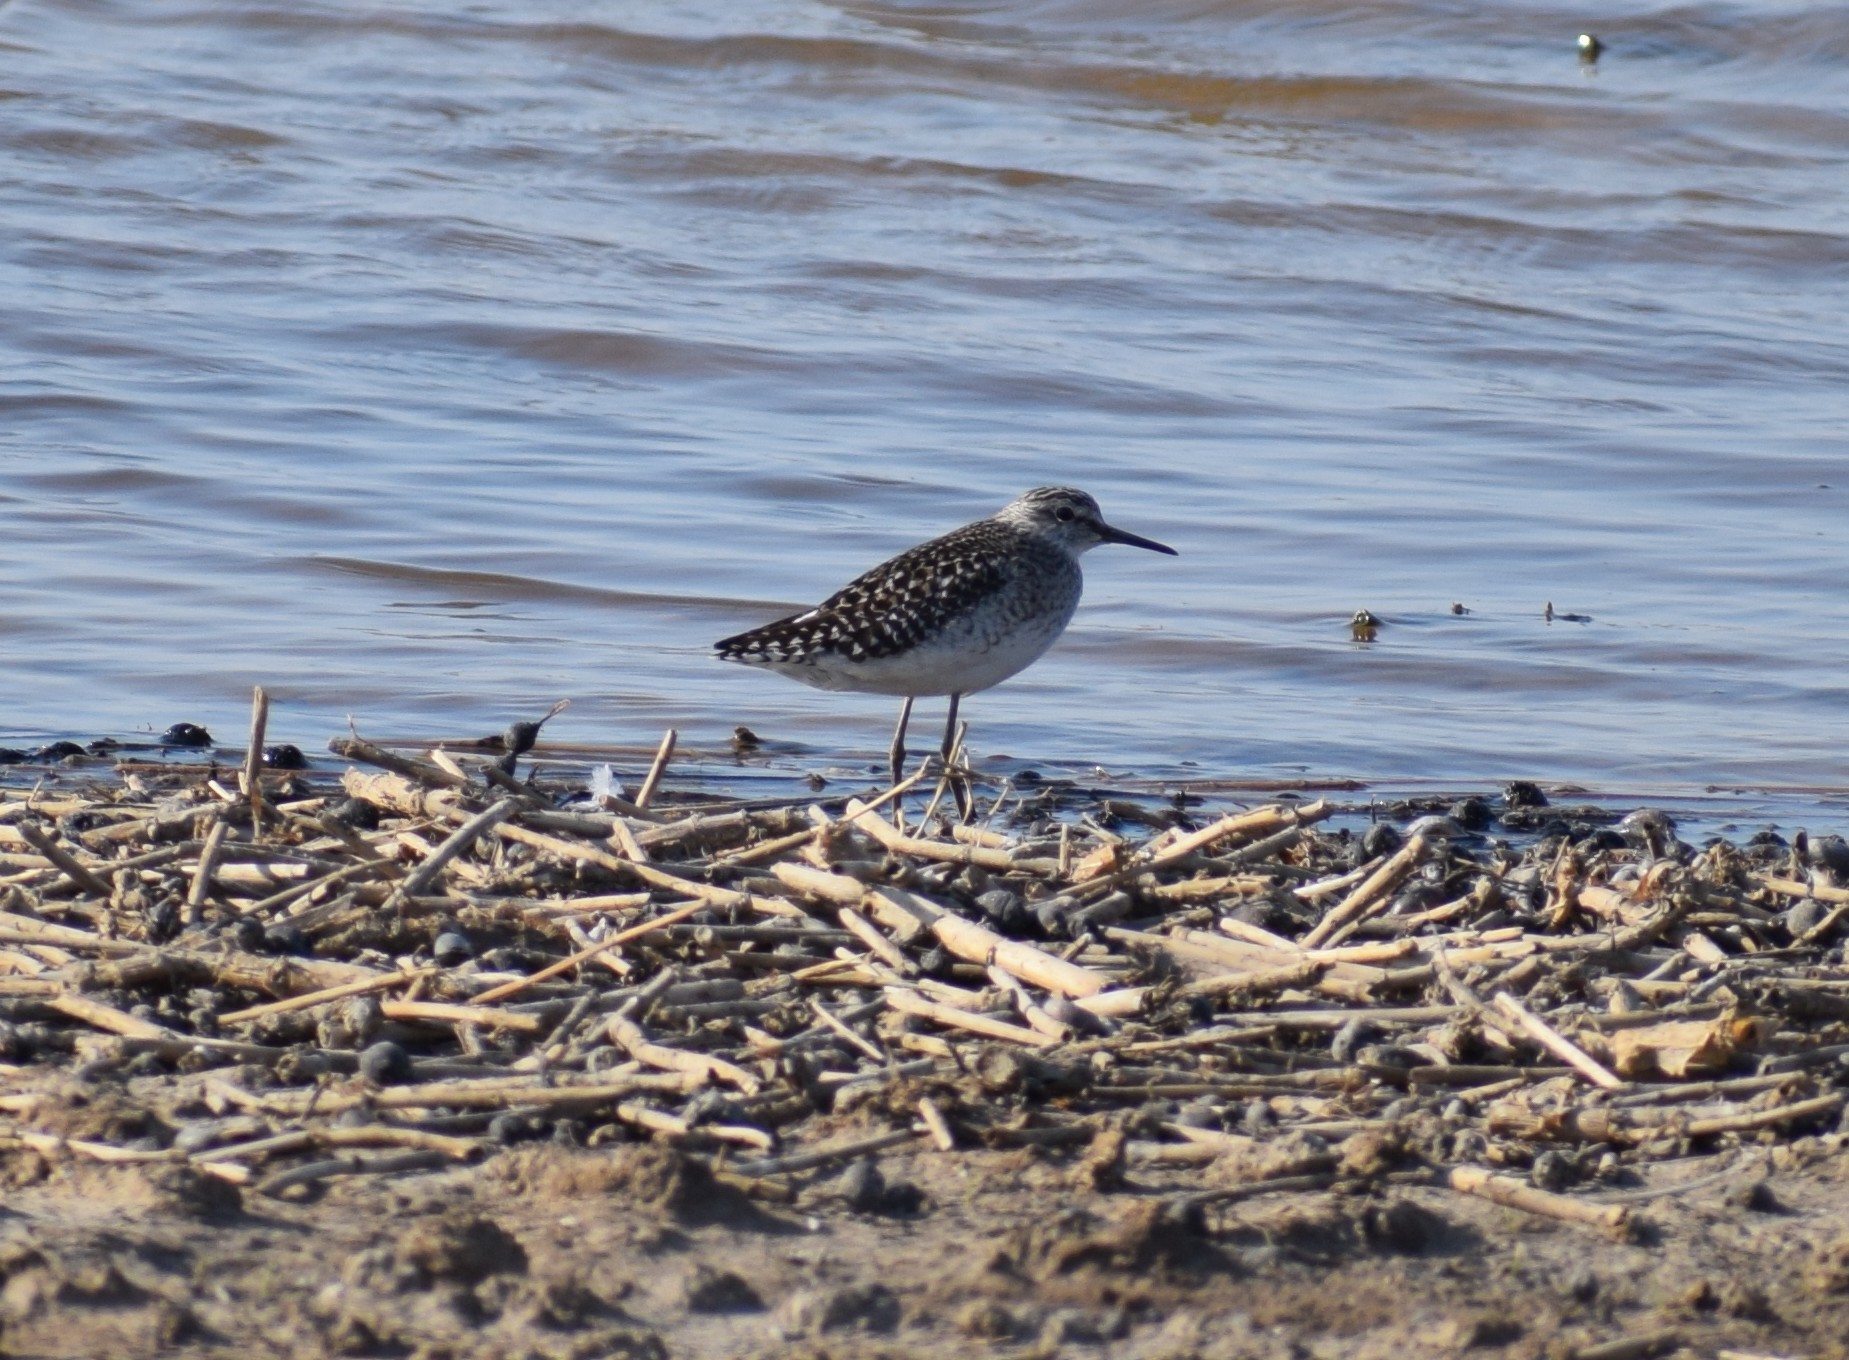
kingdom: Animalia
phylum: Chordata
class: Aves
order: Charadriiformes
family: Scolopacidae
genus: Tringa
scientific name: Tringa glareola
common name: Wood sandpiper
